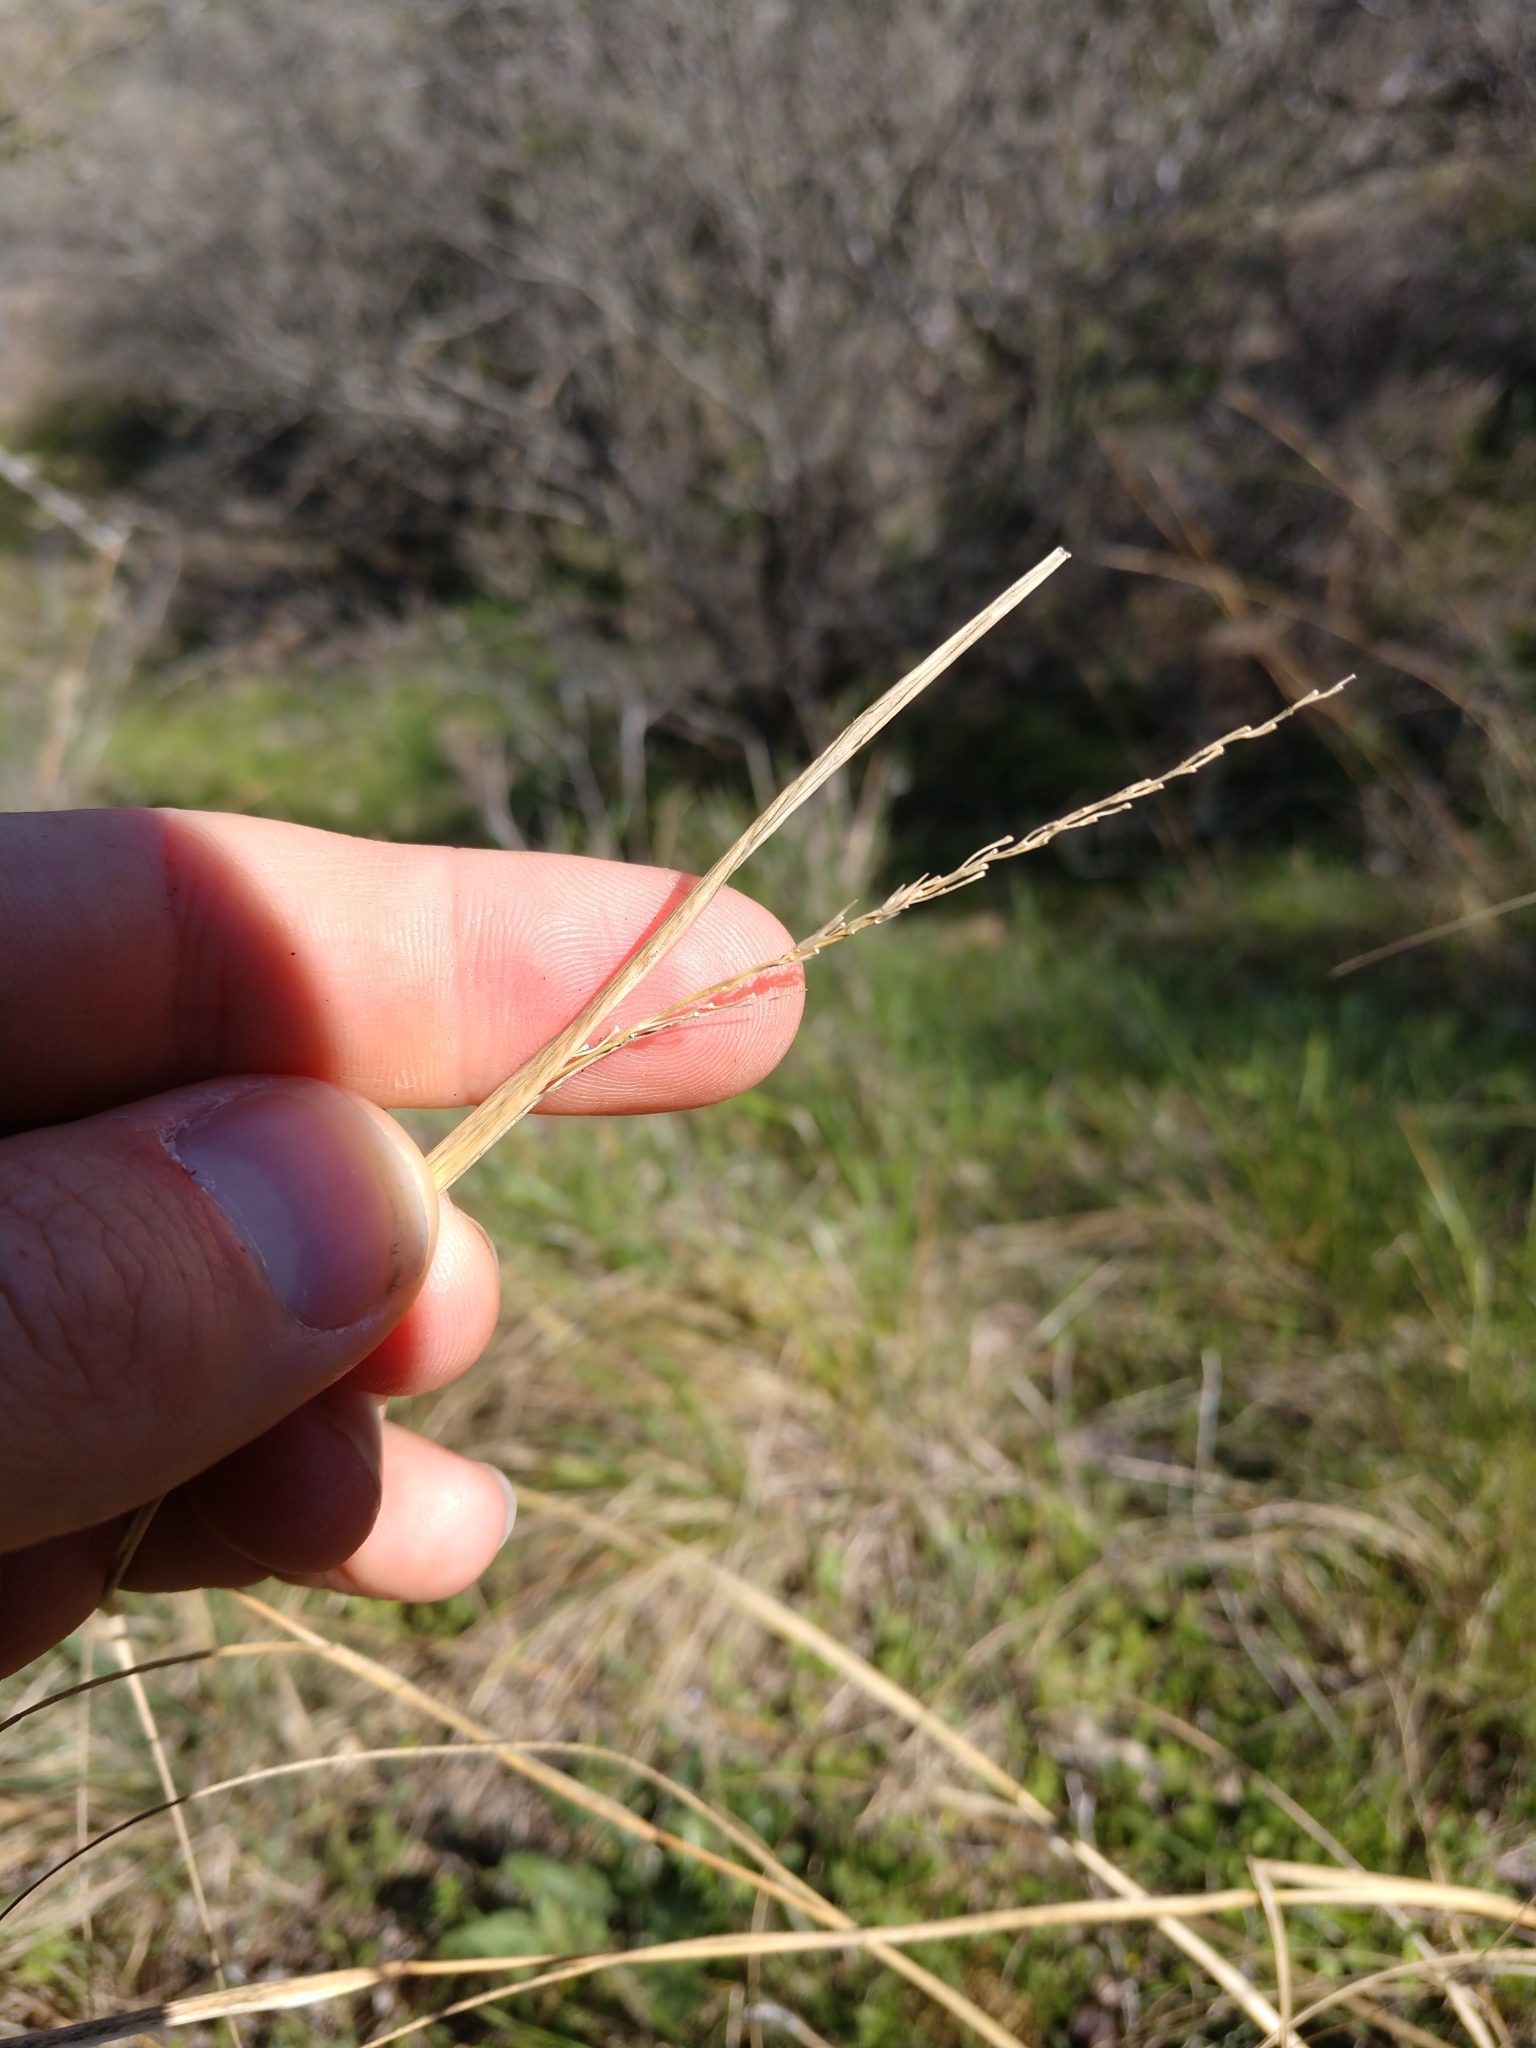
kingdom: Plantae
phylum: Tracheophyta
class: Liliopsida
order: Poales
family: Poaceae
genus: Sporobolus
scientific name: Sporobolus compositus
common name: Rough dropseed
